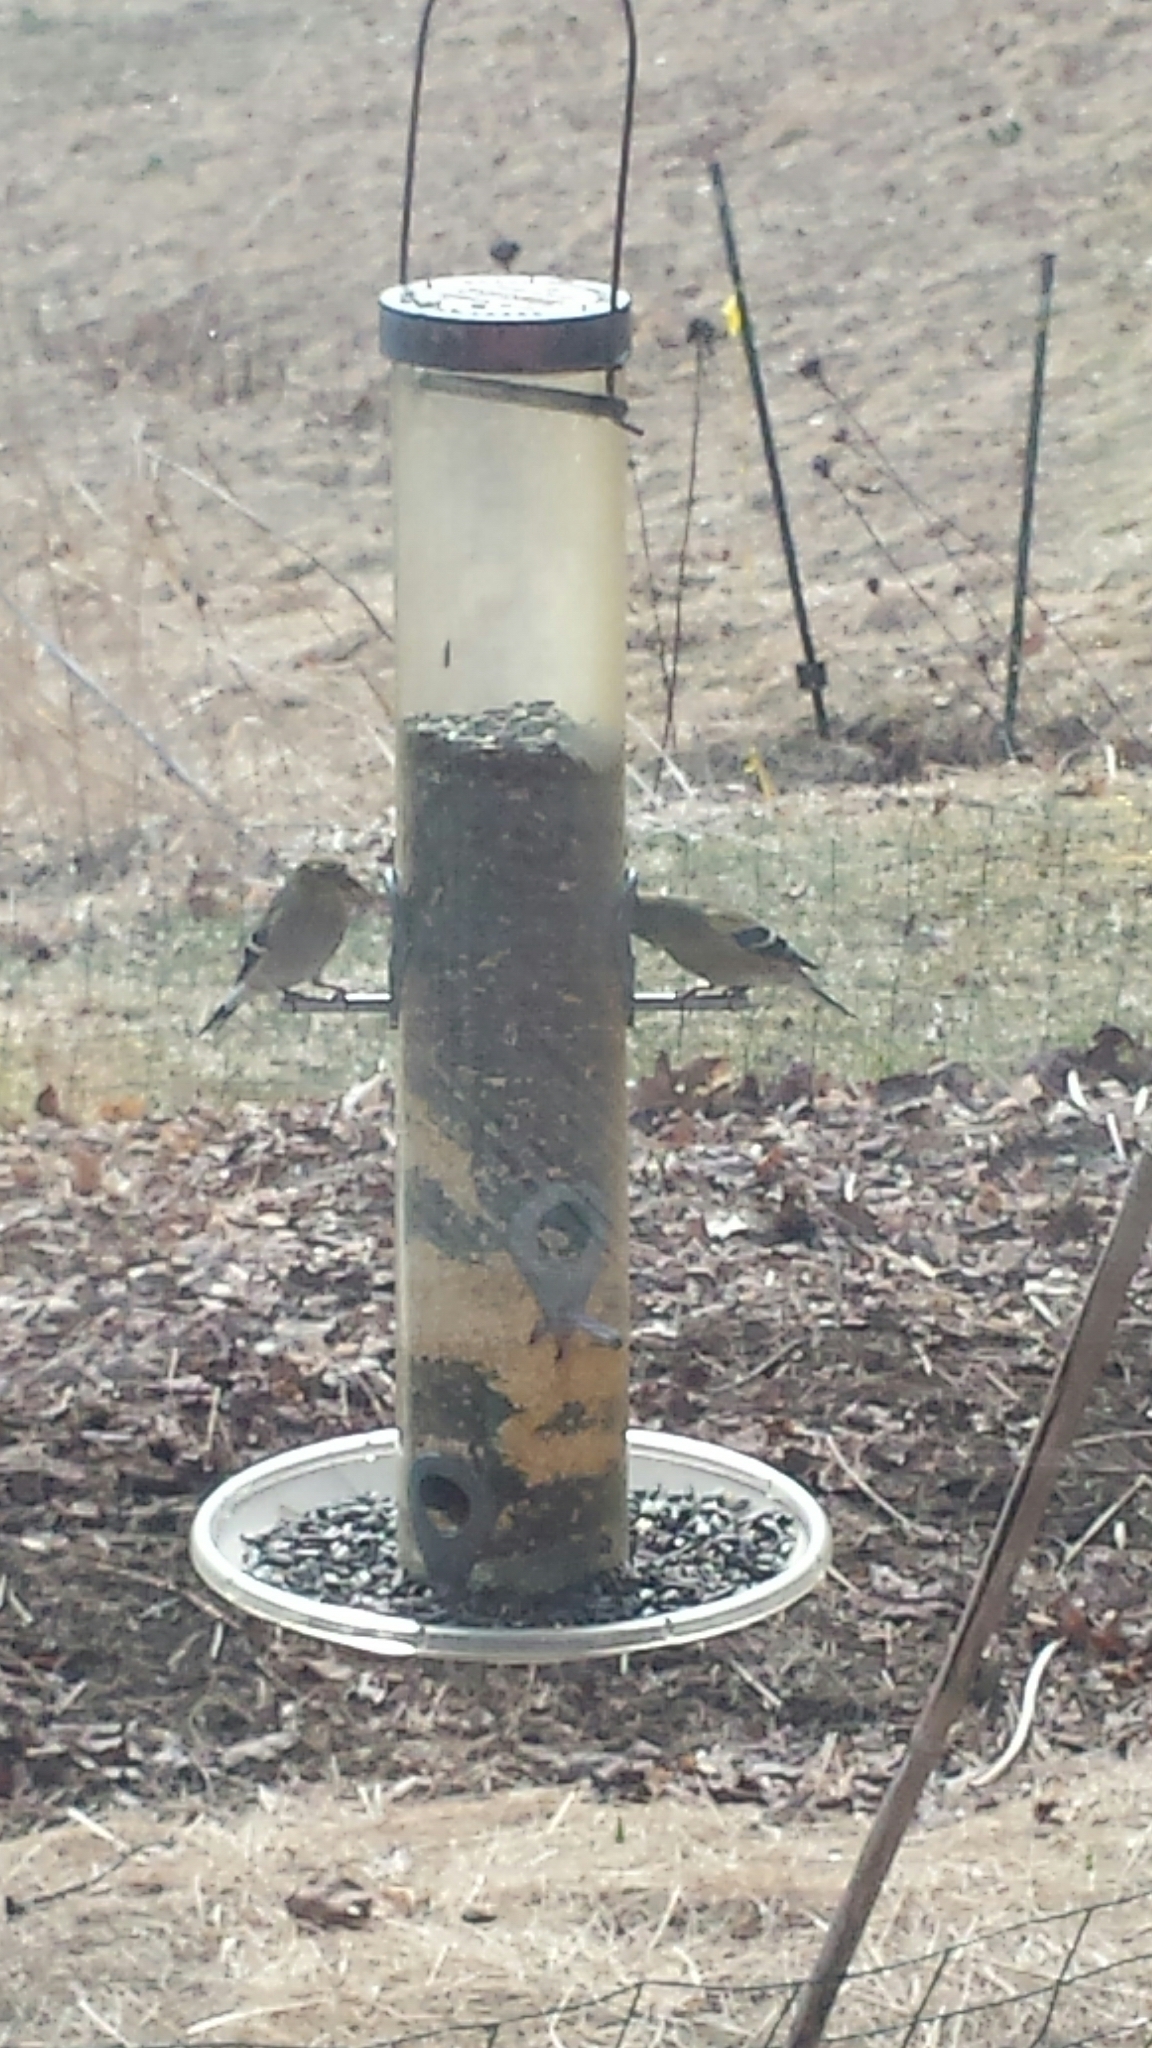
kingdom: Animalia
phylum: Chordata
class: Aves
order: Passeriformes
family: Fringillidae
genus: Spinus
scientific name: Spinus tristis
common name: American goldfinch
